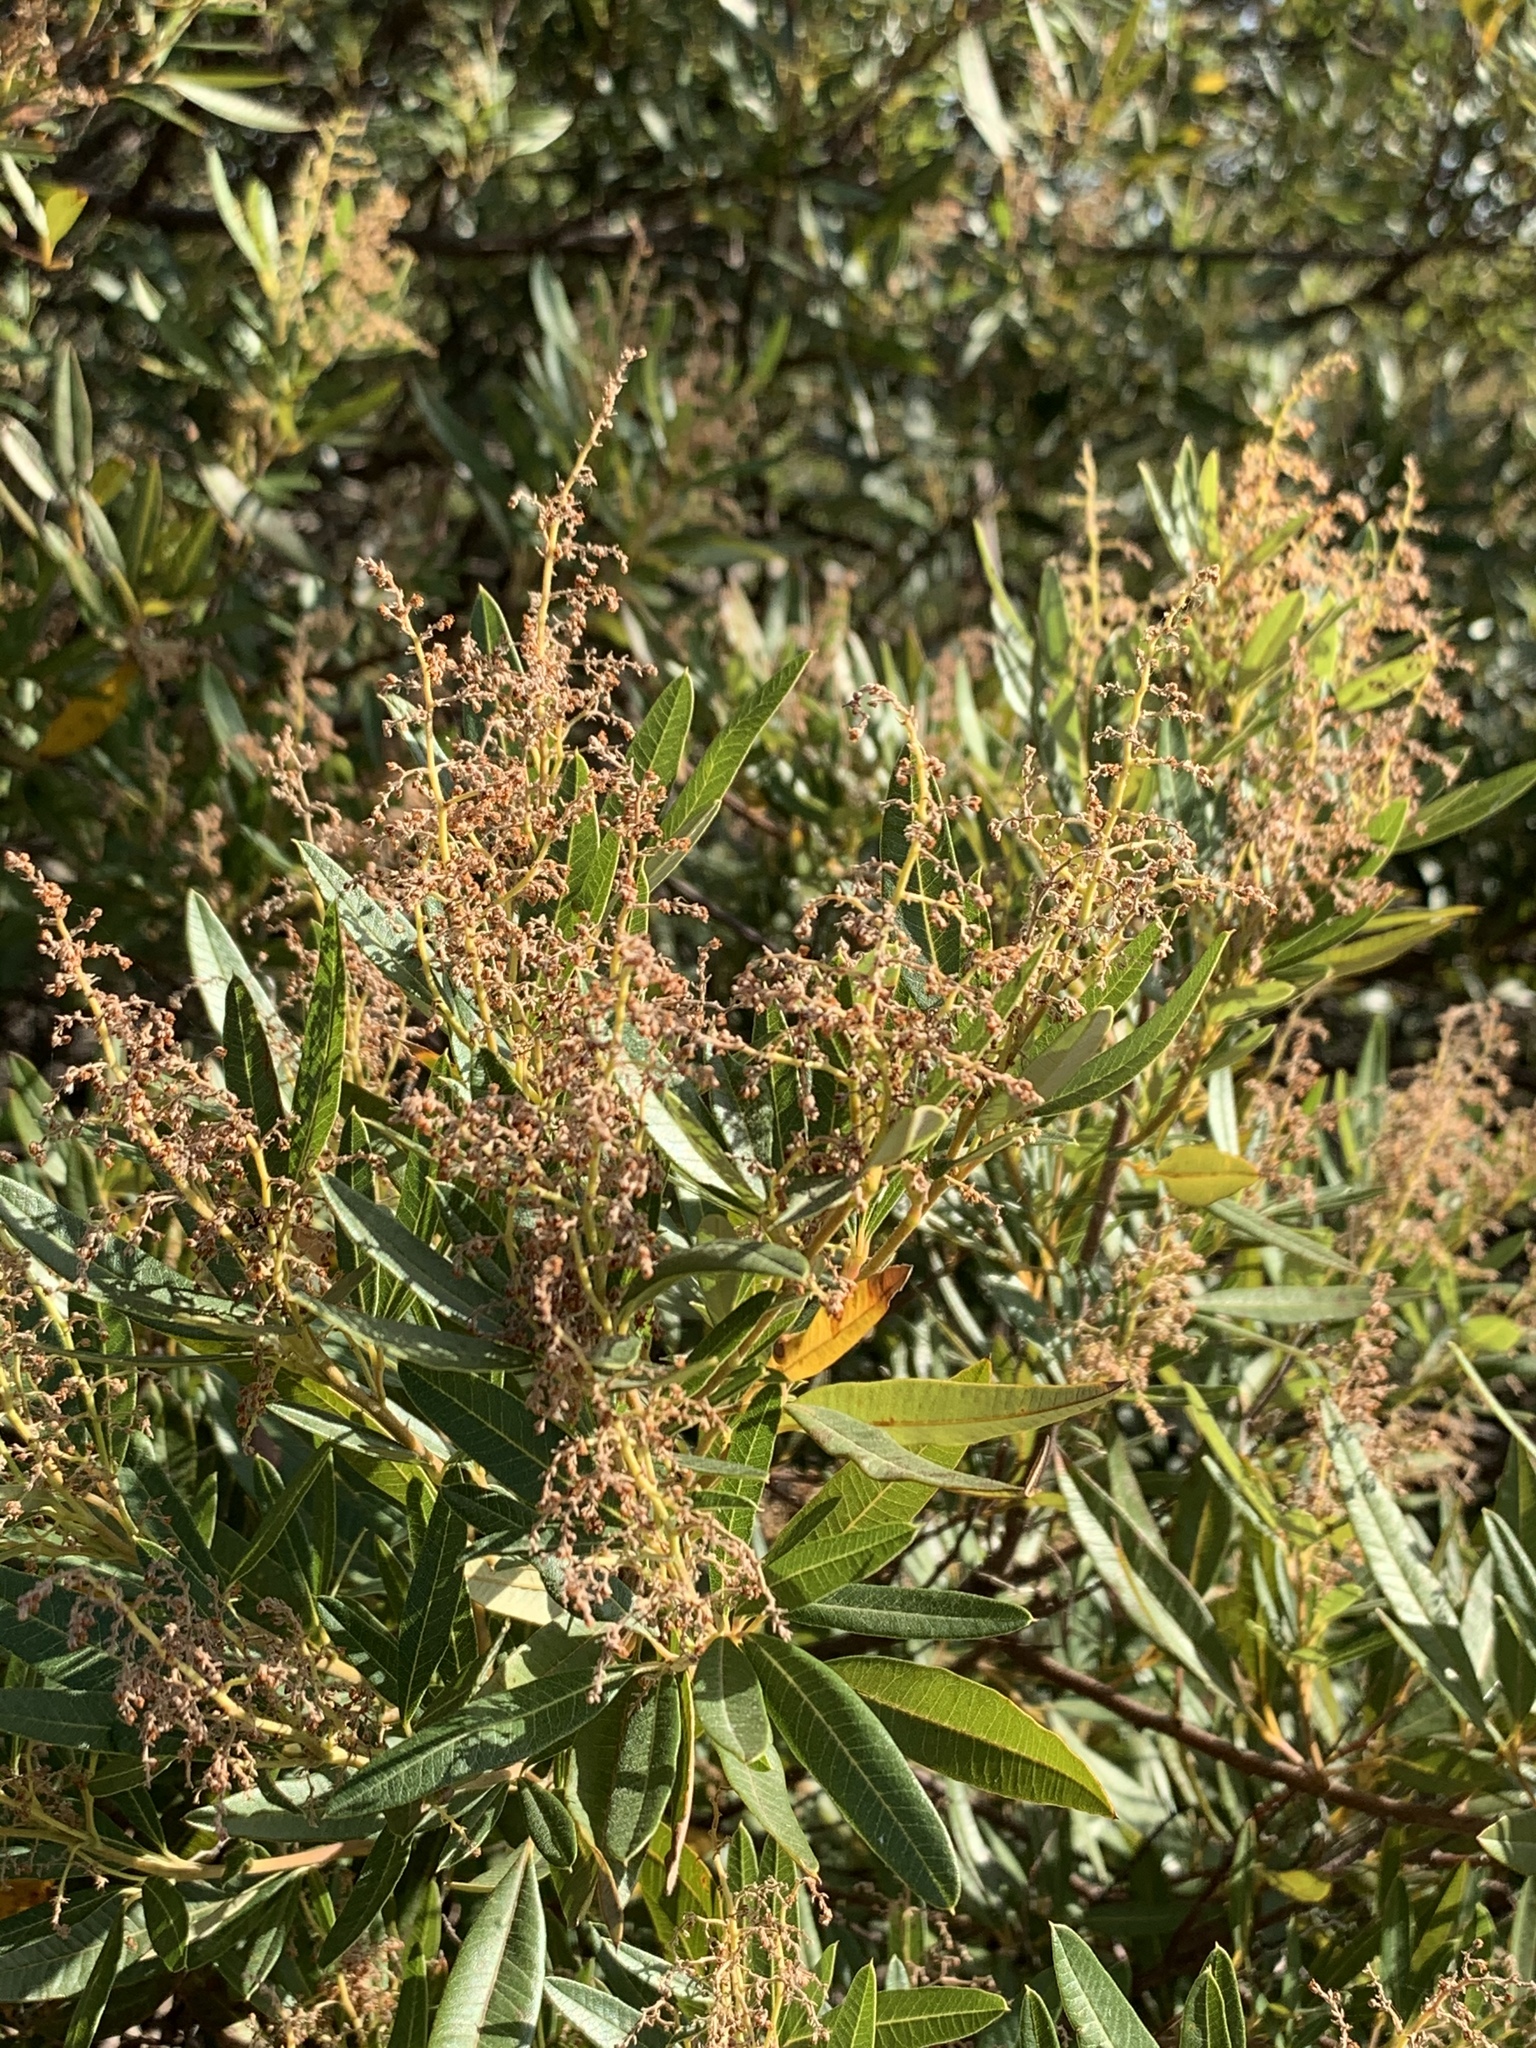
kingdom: Plantae
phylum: Tracheophyta
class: Magnoliopsida
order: Sapindales
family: Anacardiaceae
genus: Searsia
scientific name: Searsia angustifolia
